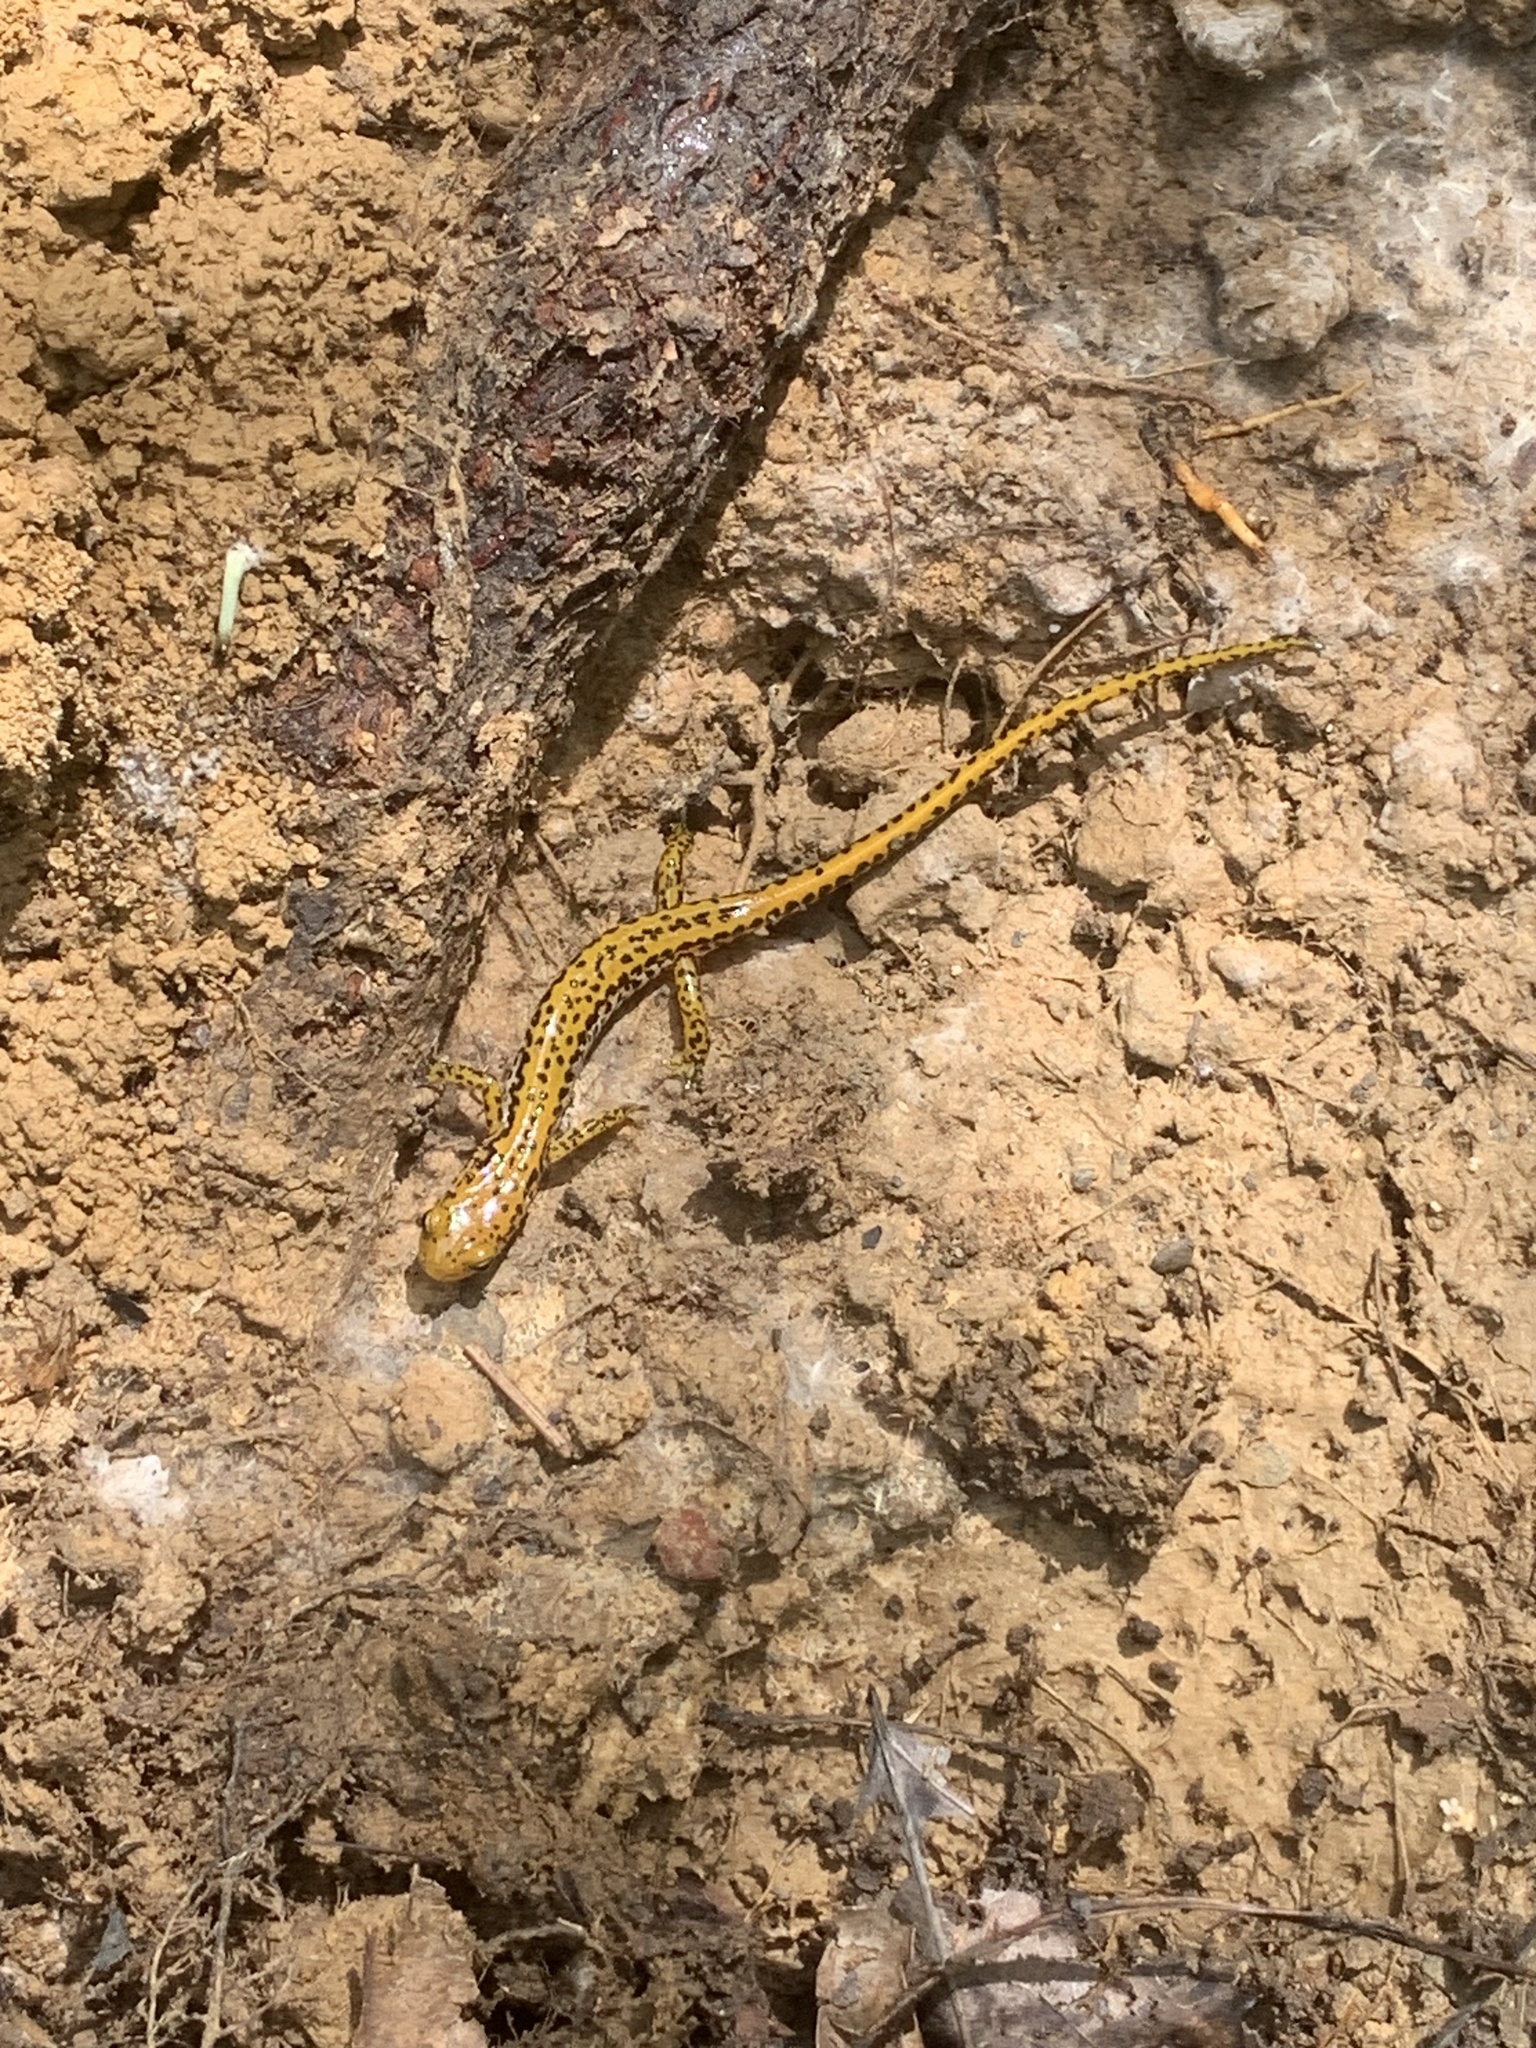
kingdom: Animalia
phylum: Chordata
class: Amphibia
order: Caudata
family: Plethodontidae
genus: Eurycea
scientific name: Eurycea longicauda
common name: Long-tailed salamander
